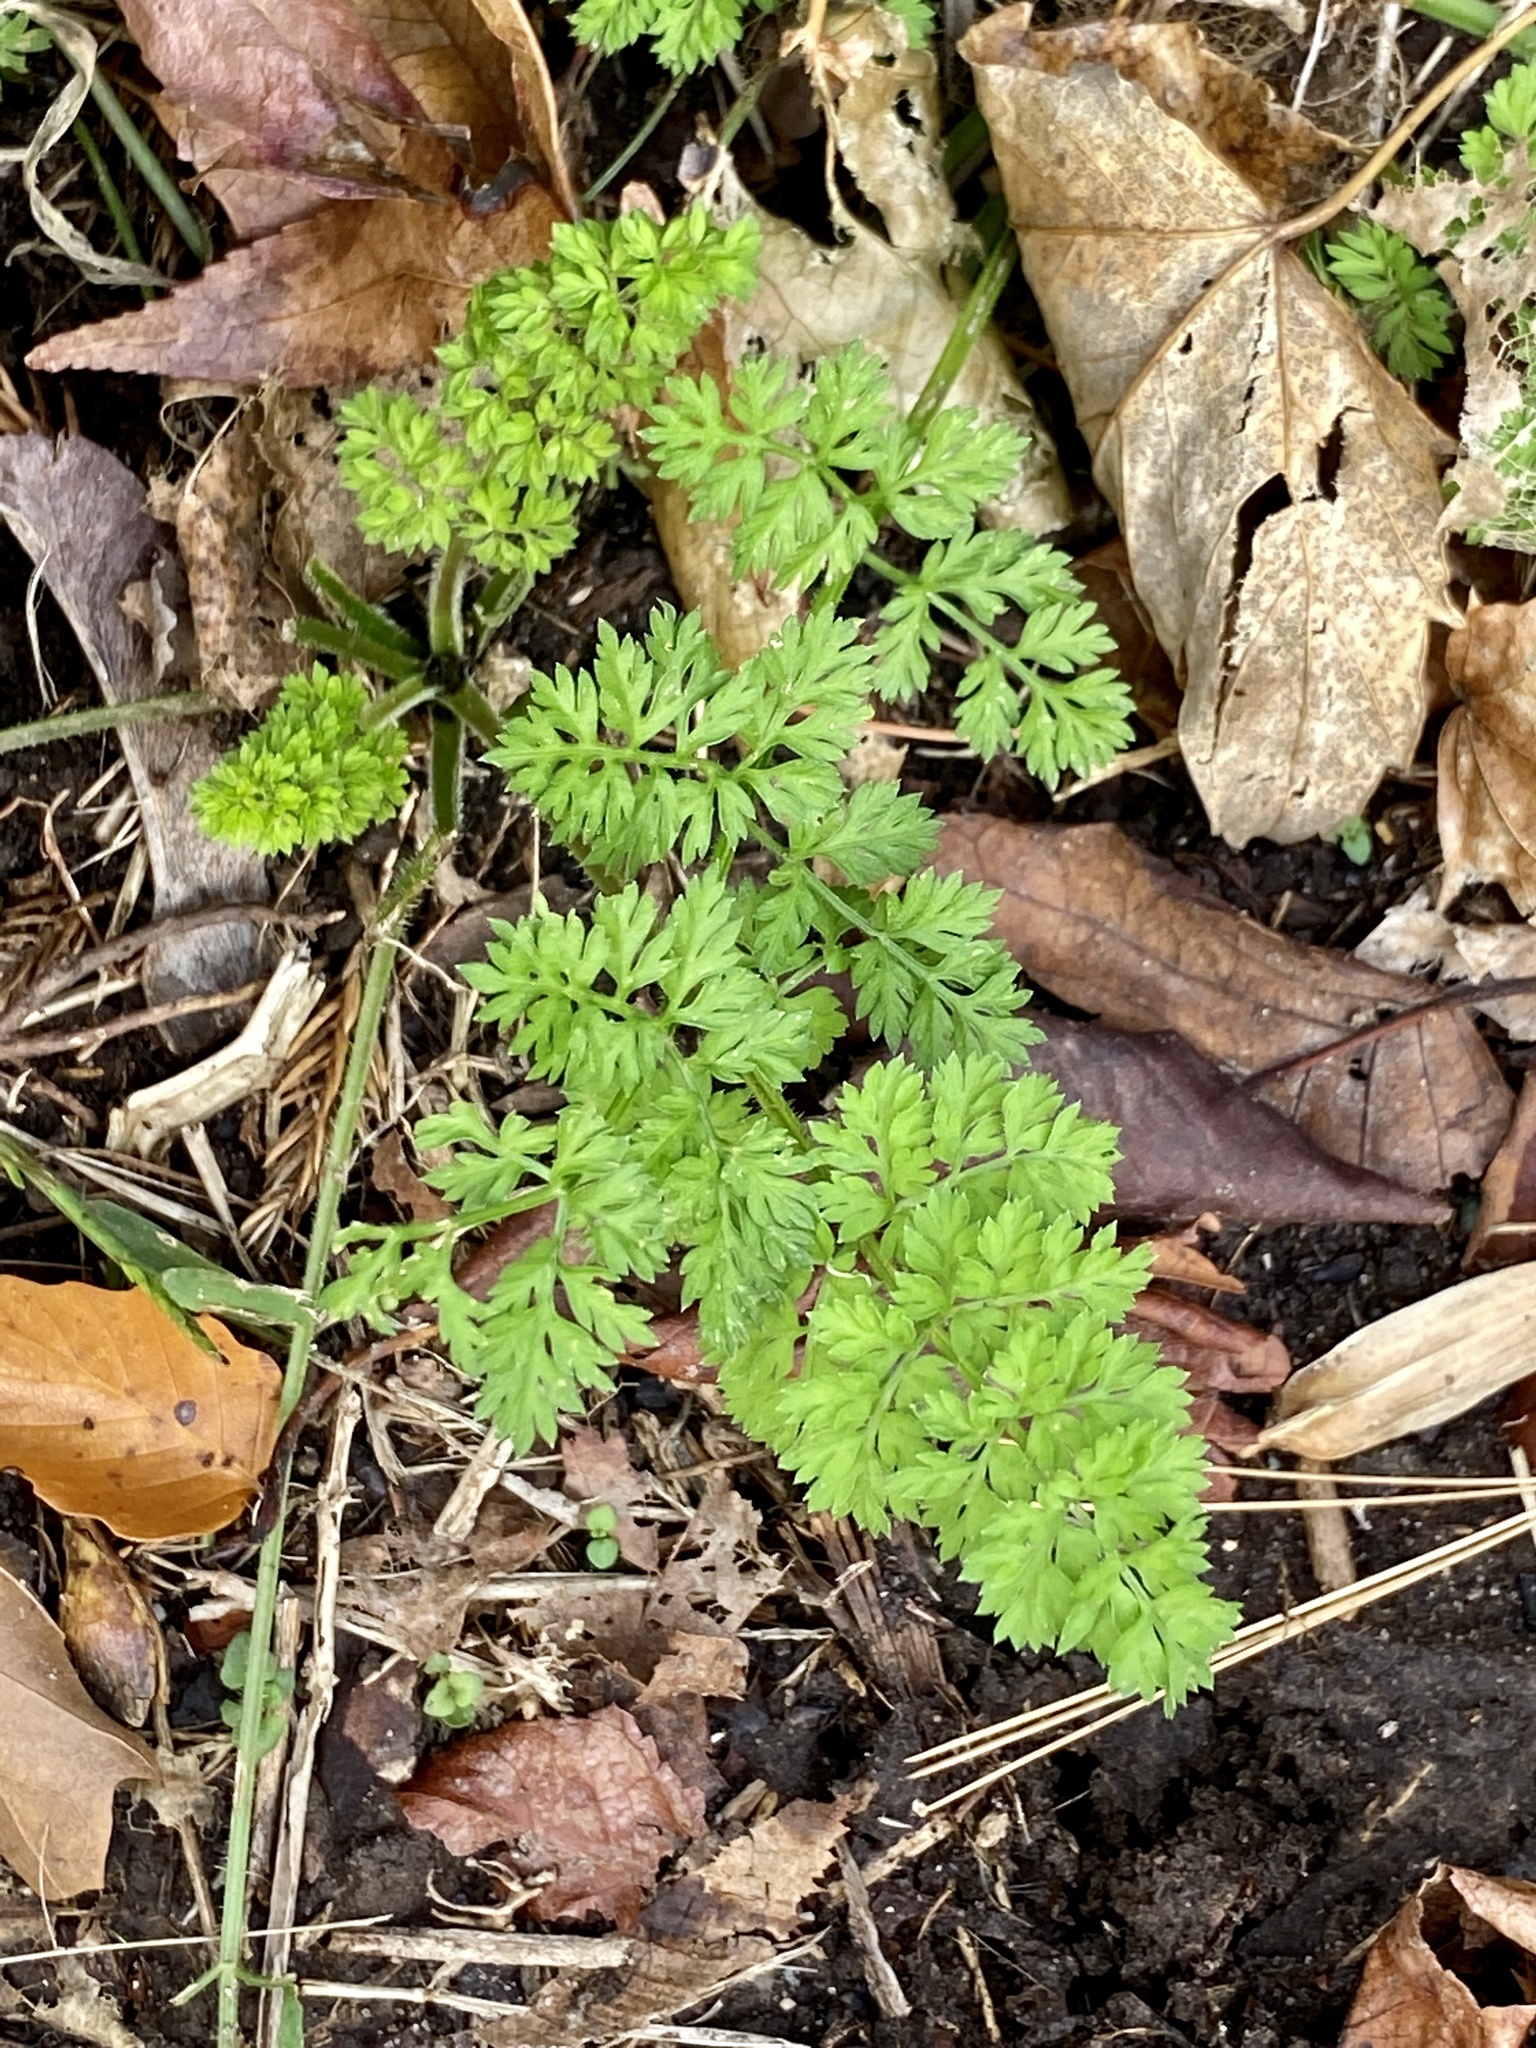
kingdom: Plantae
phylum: Tracheophyta
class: Magnoliopsida
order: Apiales
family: Apiaceae
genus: Daucus
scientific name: Daucus carota
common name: Wild carrot
